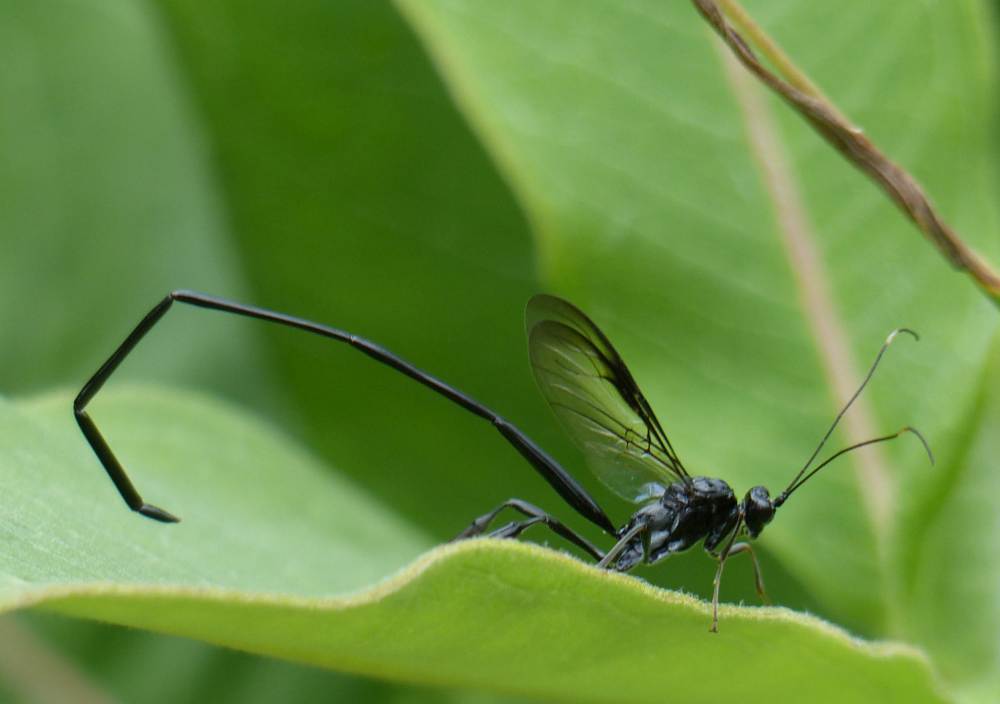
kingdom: Animalia
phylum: Arthropoda
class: Insecta
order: Hymenoptera
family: Pelecinidae
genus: Pelecinus
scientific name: Pelecinus polyturator
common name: American pelecinid wasp
